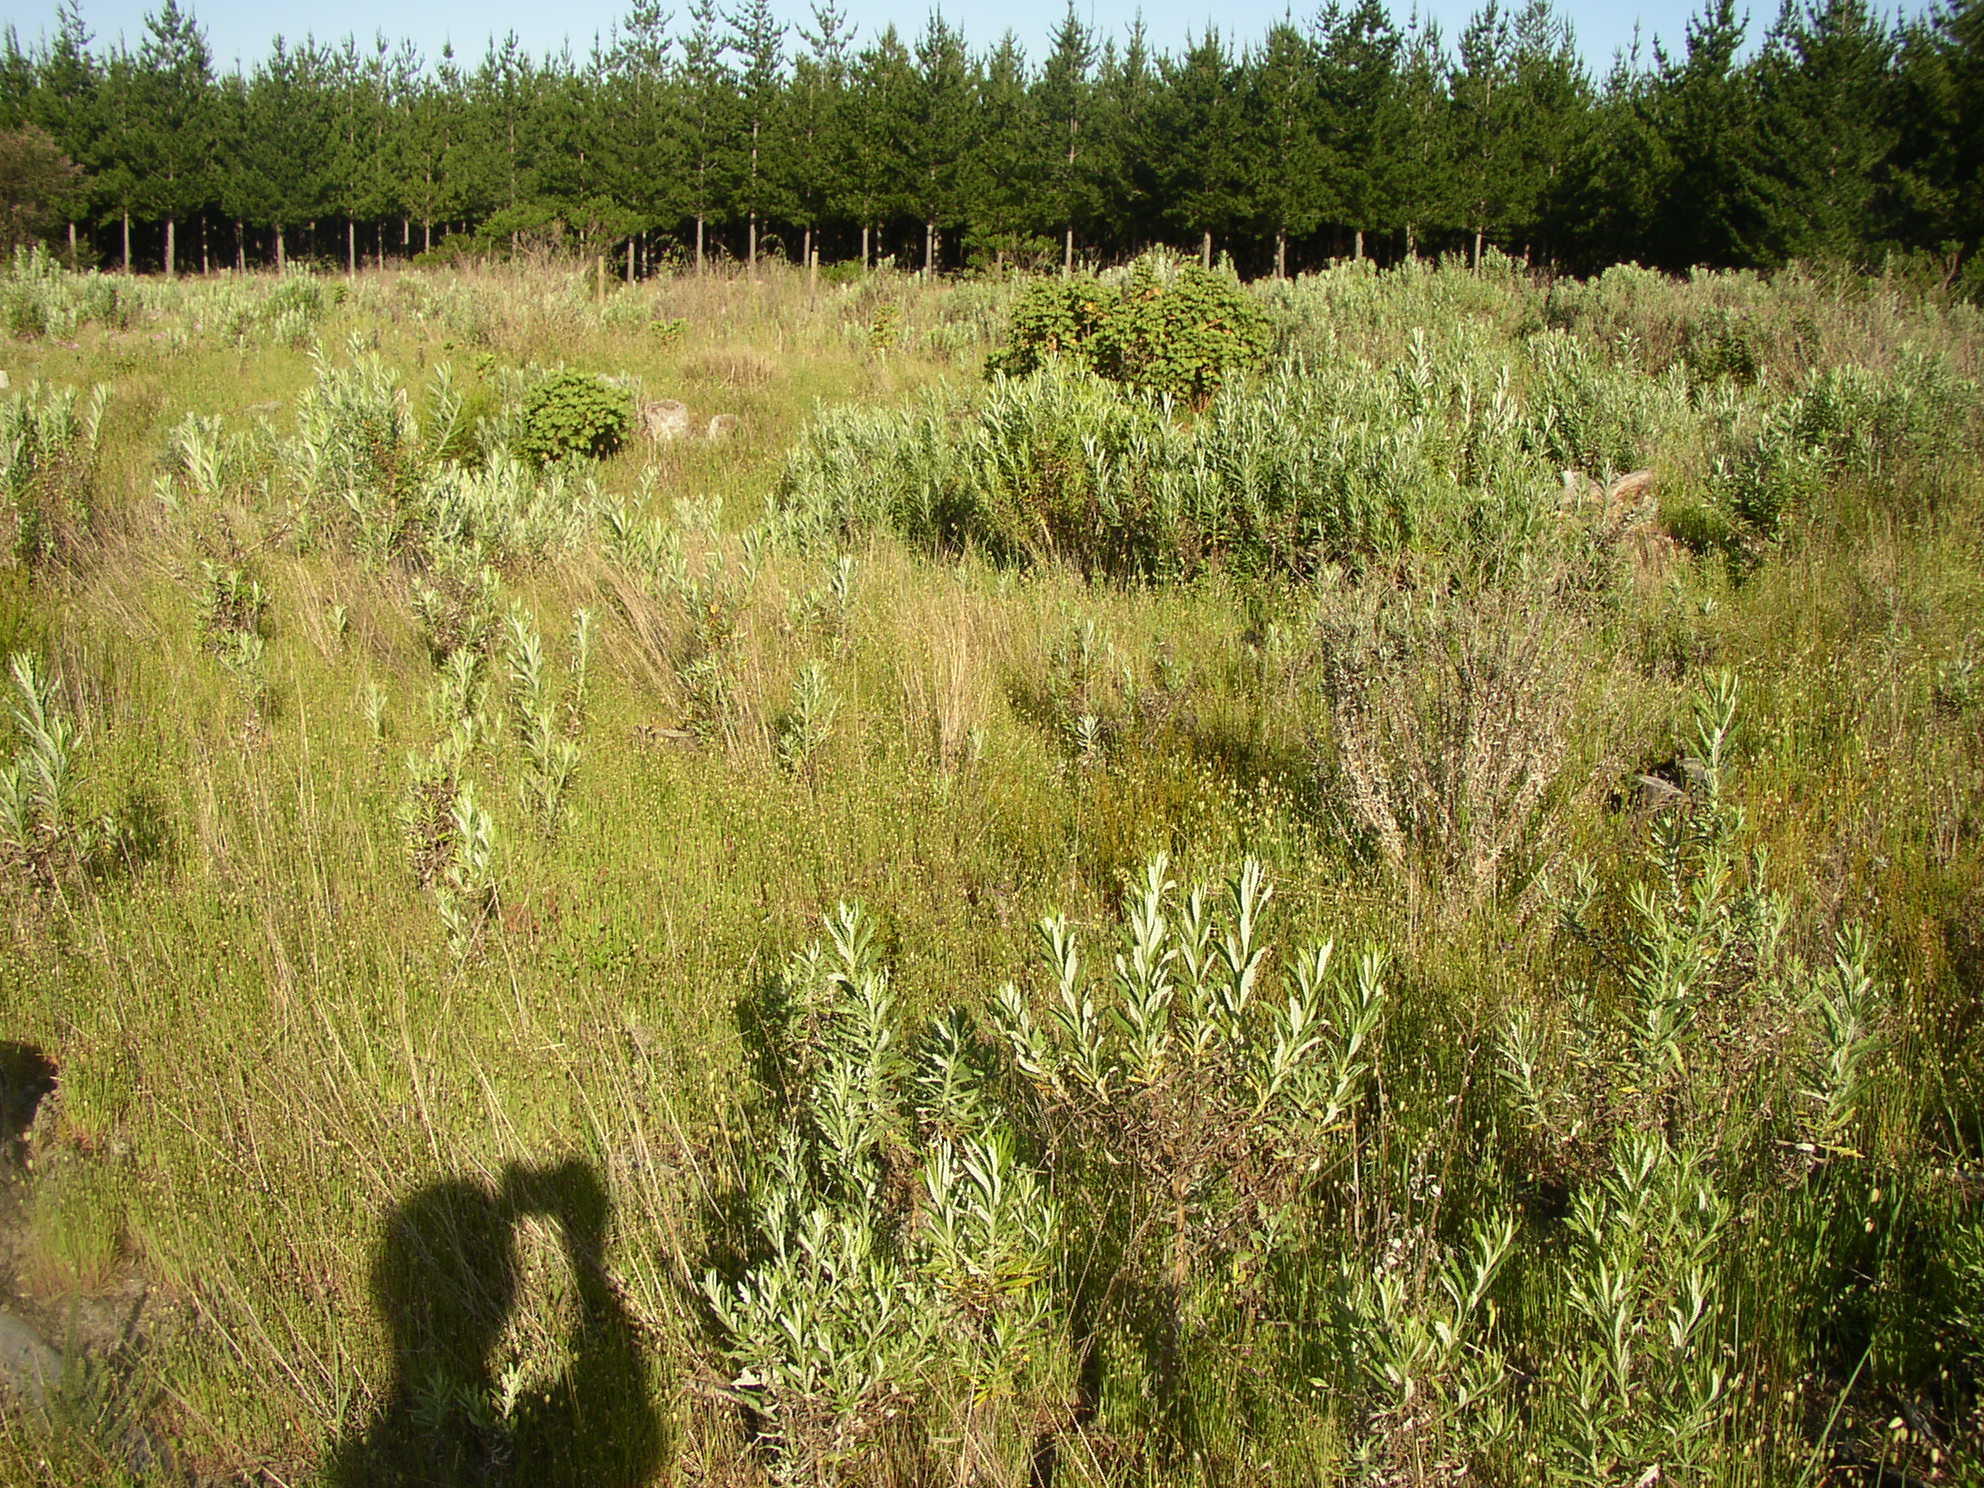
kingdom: Plantae
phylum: Tracheophyta
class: Magnoliopsida
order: Asterales
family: Asteraceae
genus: Senecio
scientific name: Senecio pterophorus
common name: Shoddy ragwort
